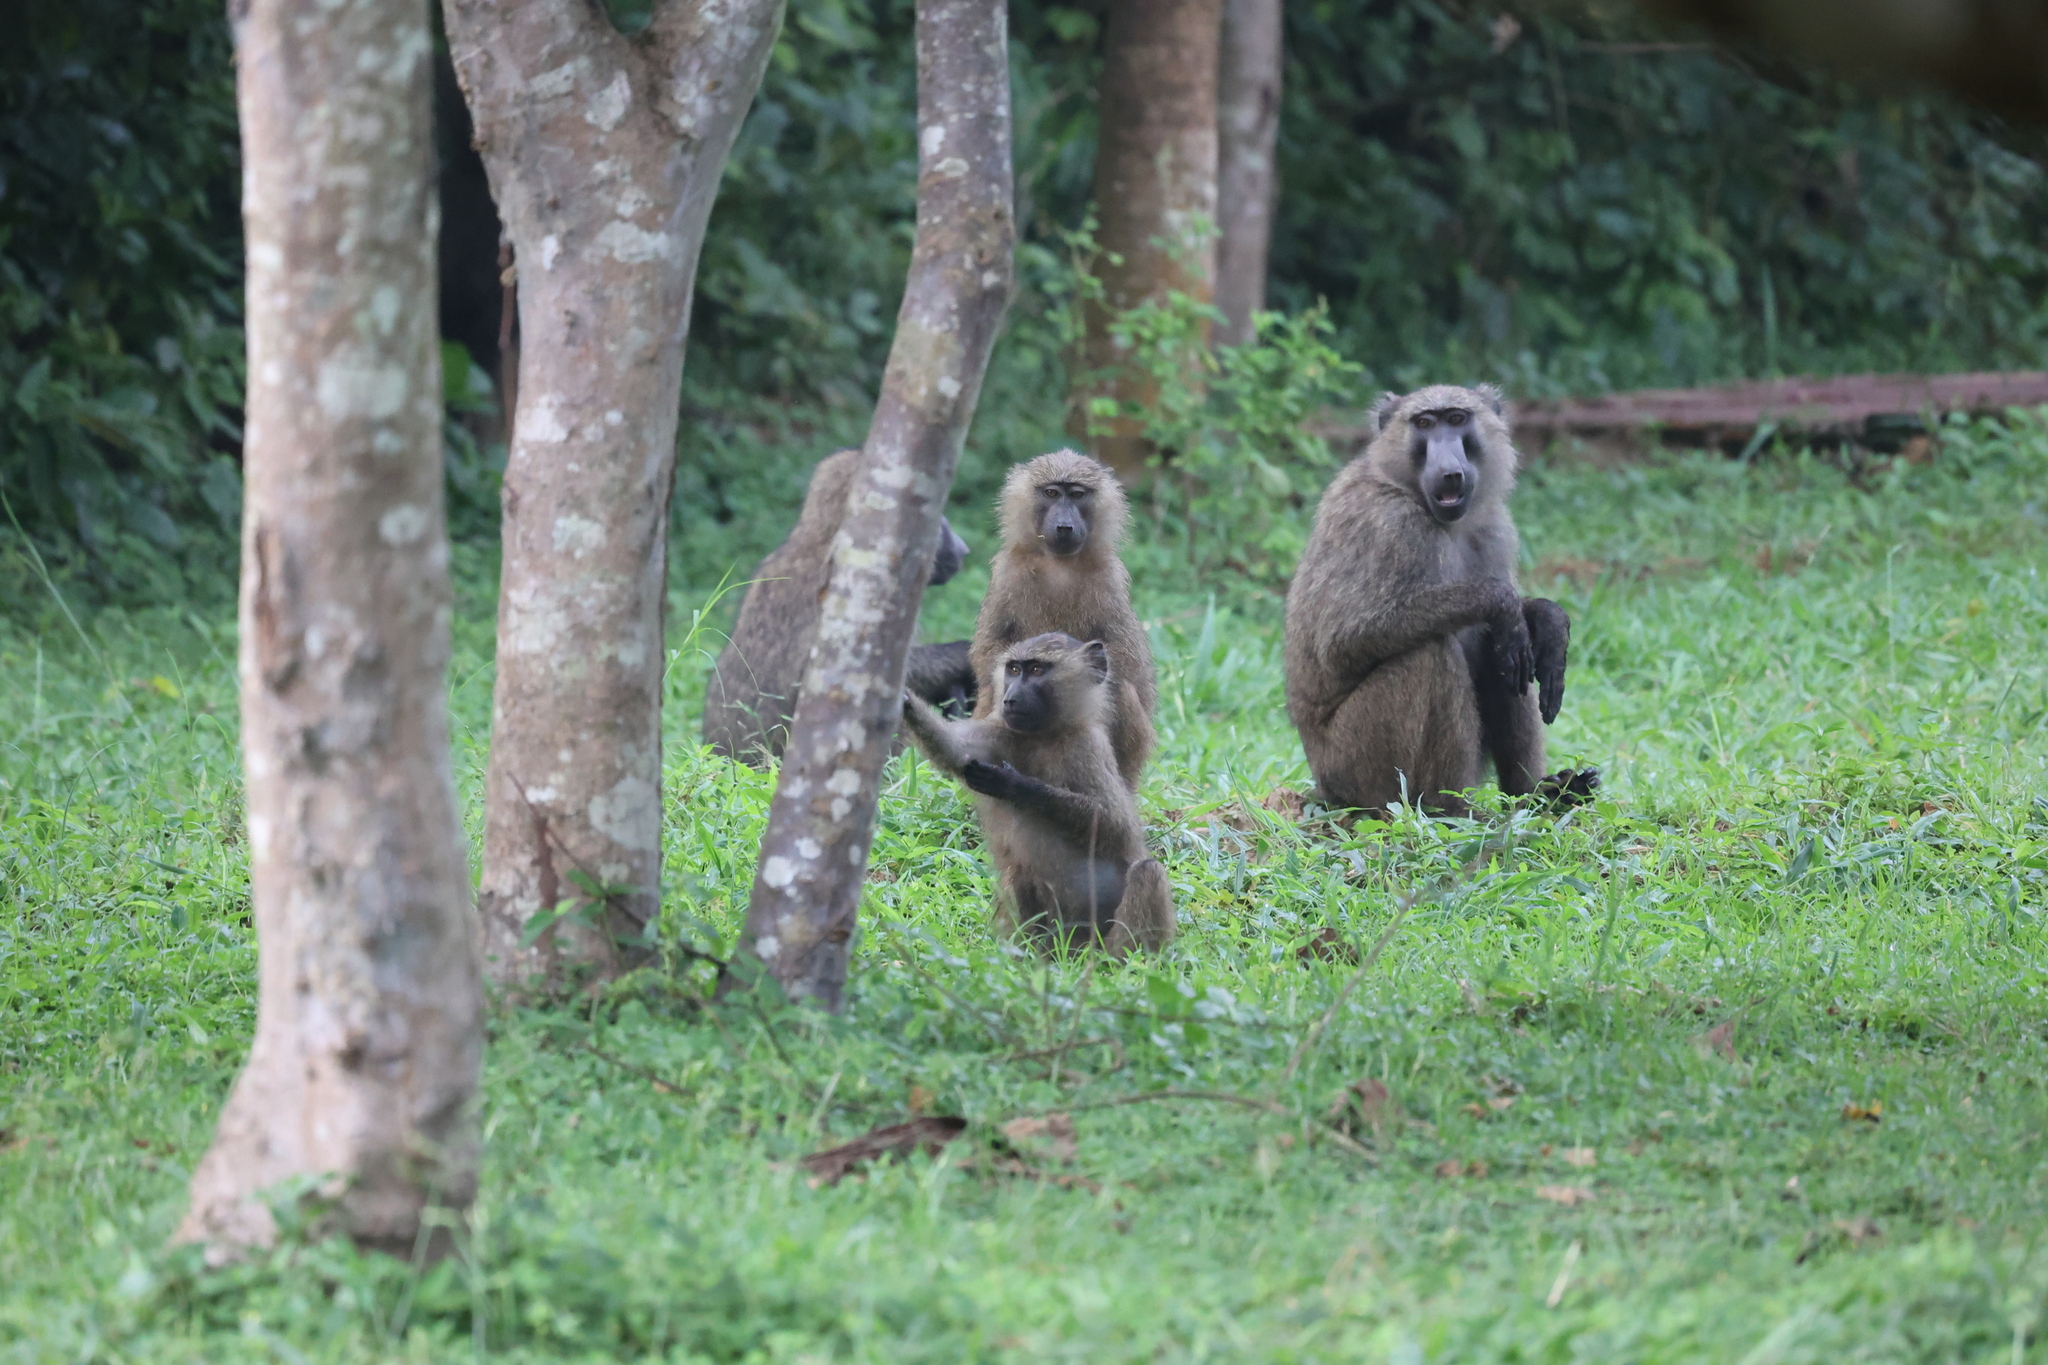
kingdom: Animalia
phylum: Chordata
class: Mammalia
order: Primates
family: Cercopithecidae
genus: Papio
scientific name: Papio anubis
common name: Olive baboon
